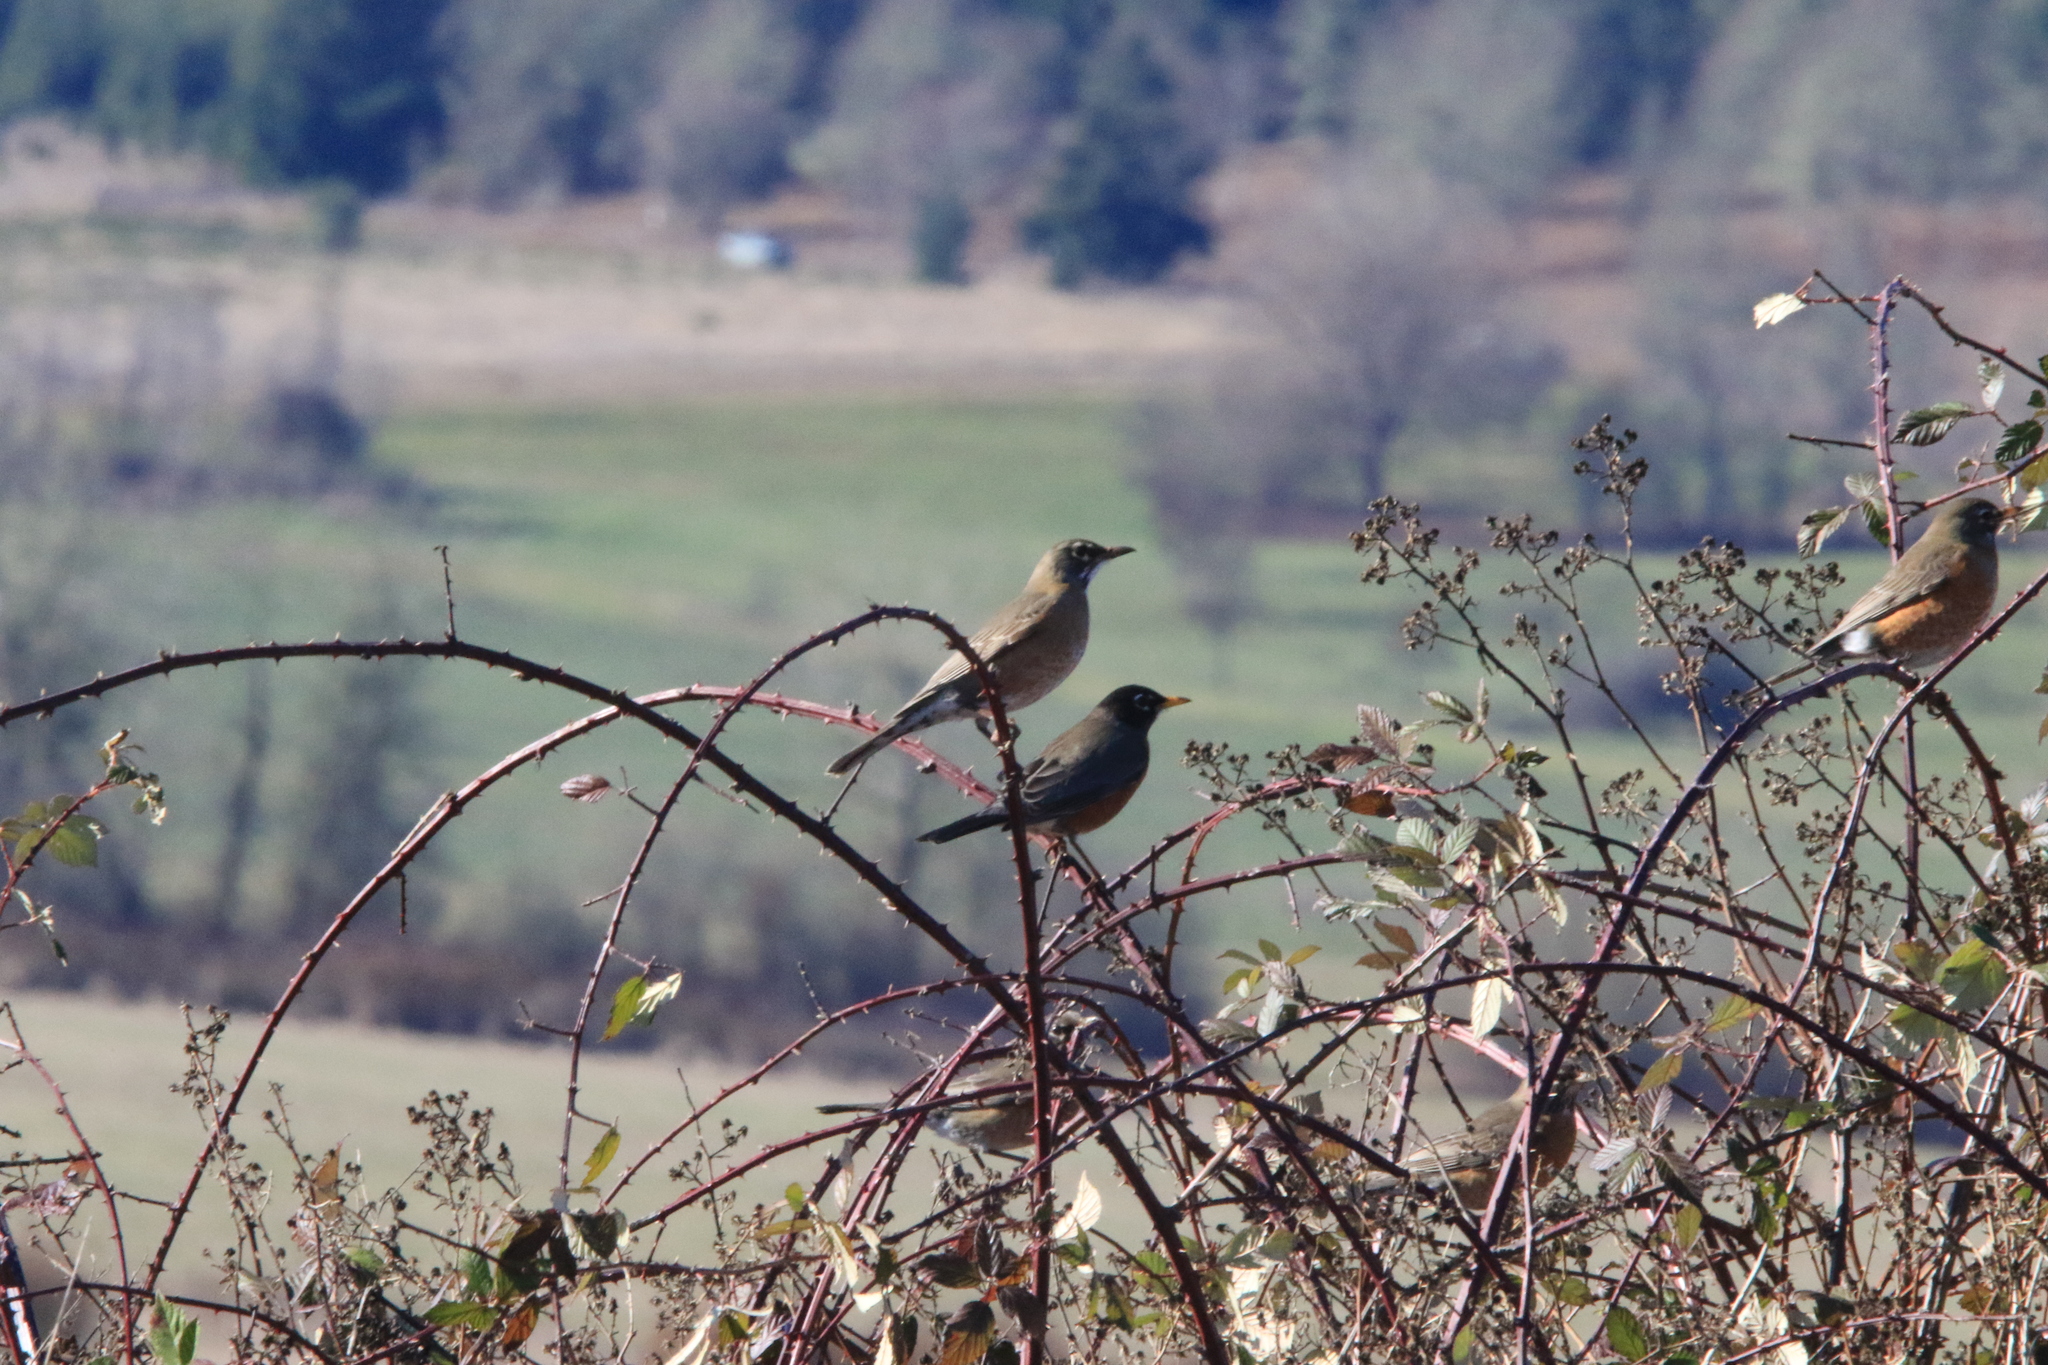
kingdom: Animalia
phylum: Chordata
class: Aves
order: Passeriformes
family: Turdidae
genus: Turdus
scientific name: Turdus migratorius
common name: American robin
